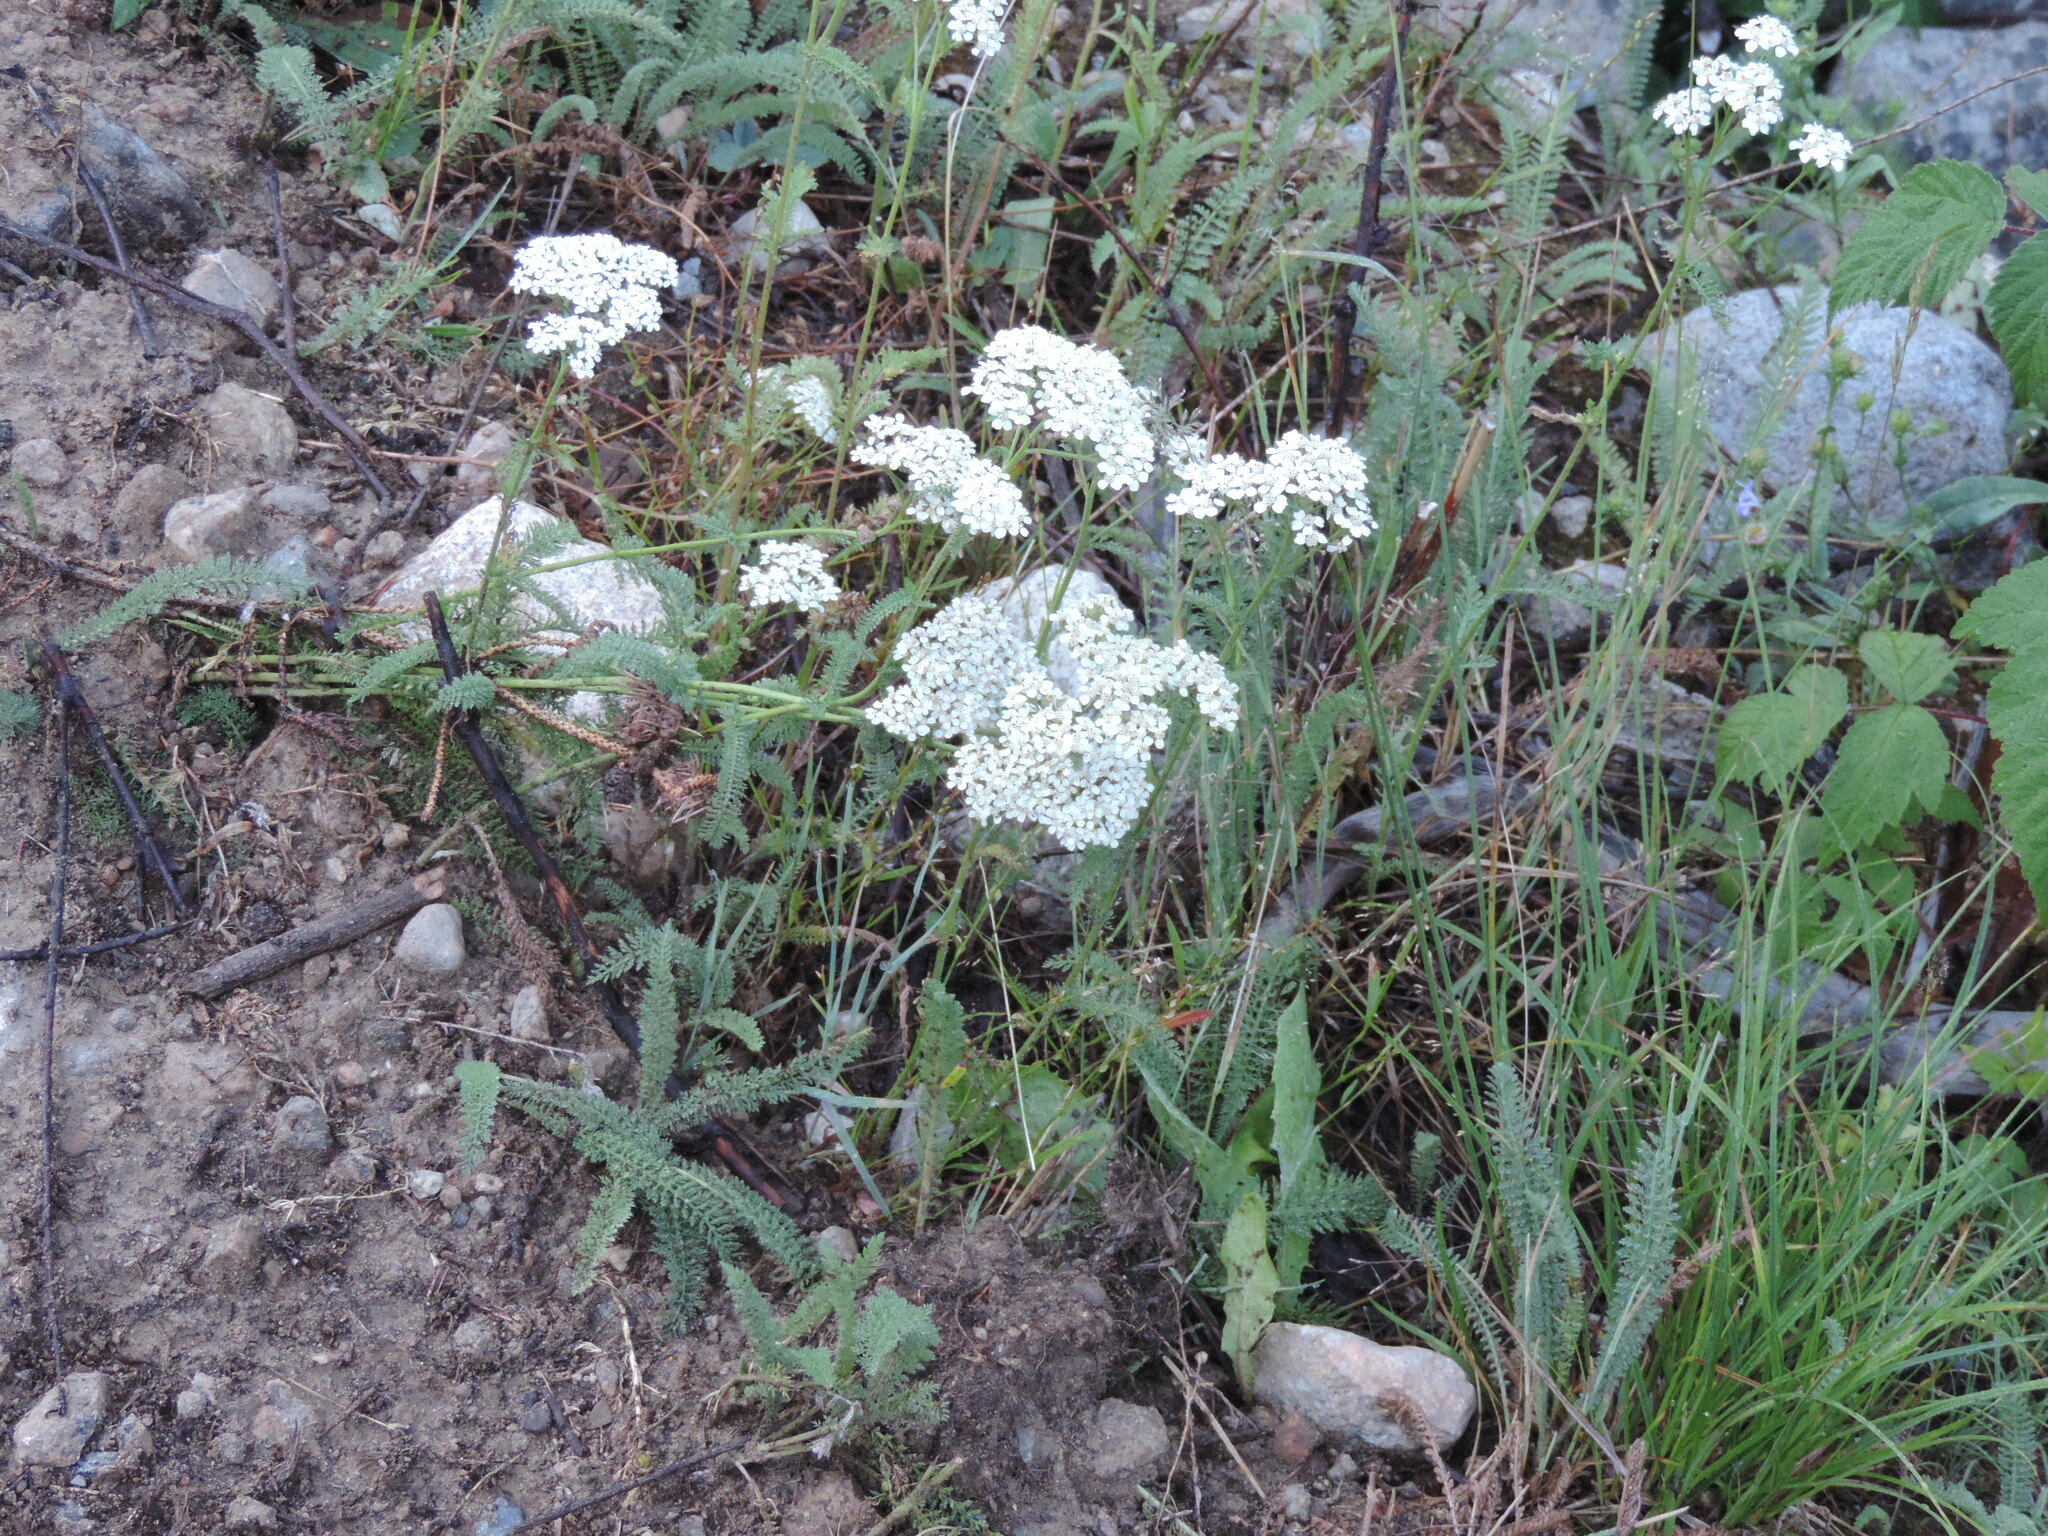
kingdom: Plantae
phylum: Tracheophyta
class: Magnoliopsida
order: Asterales
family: Asteraceae
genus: Achillea
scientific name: Achillea millefolium
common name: Yarrow
